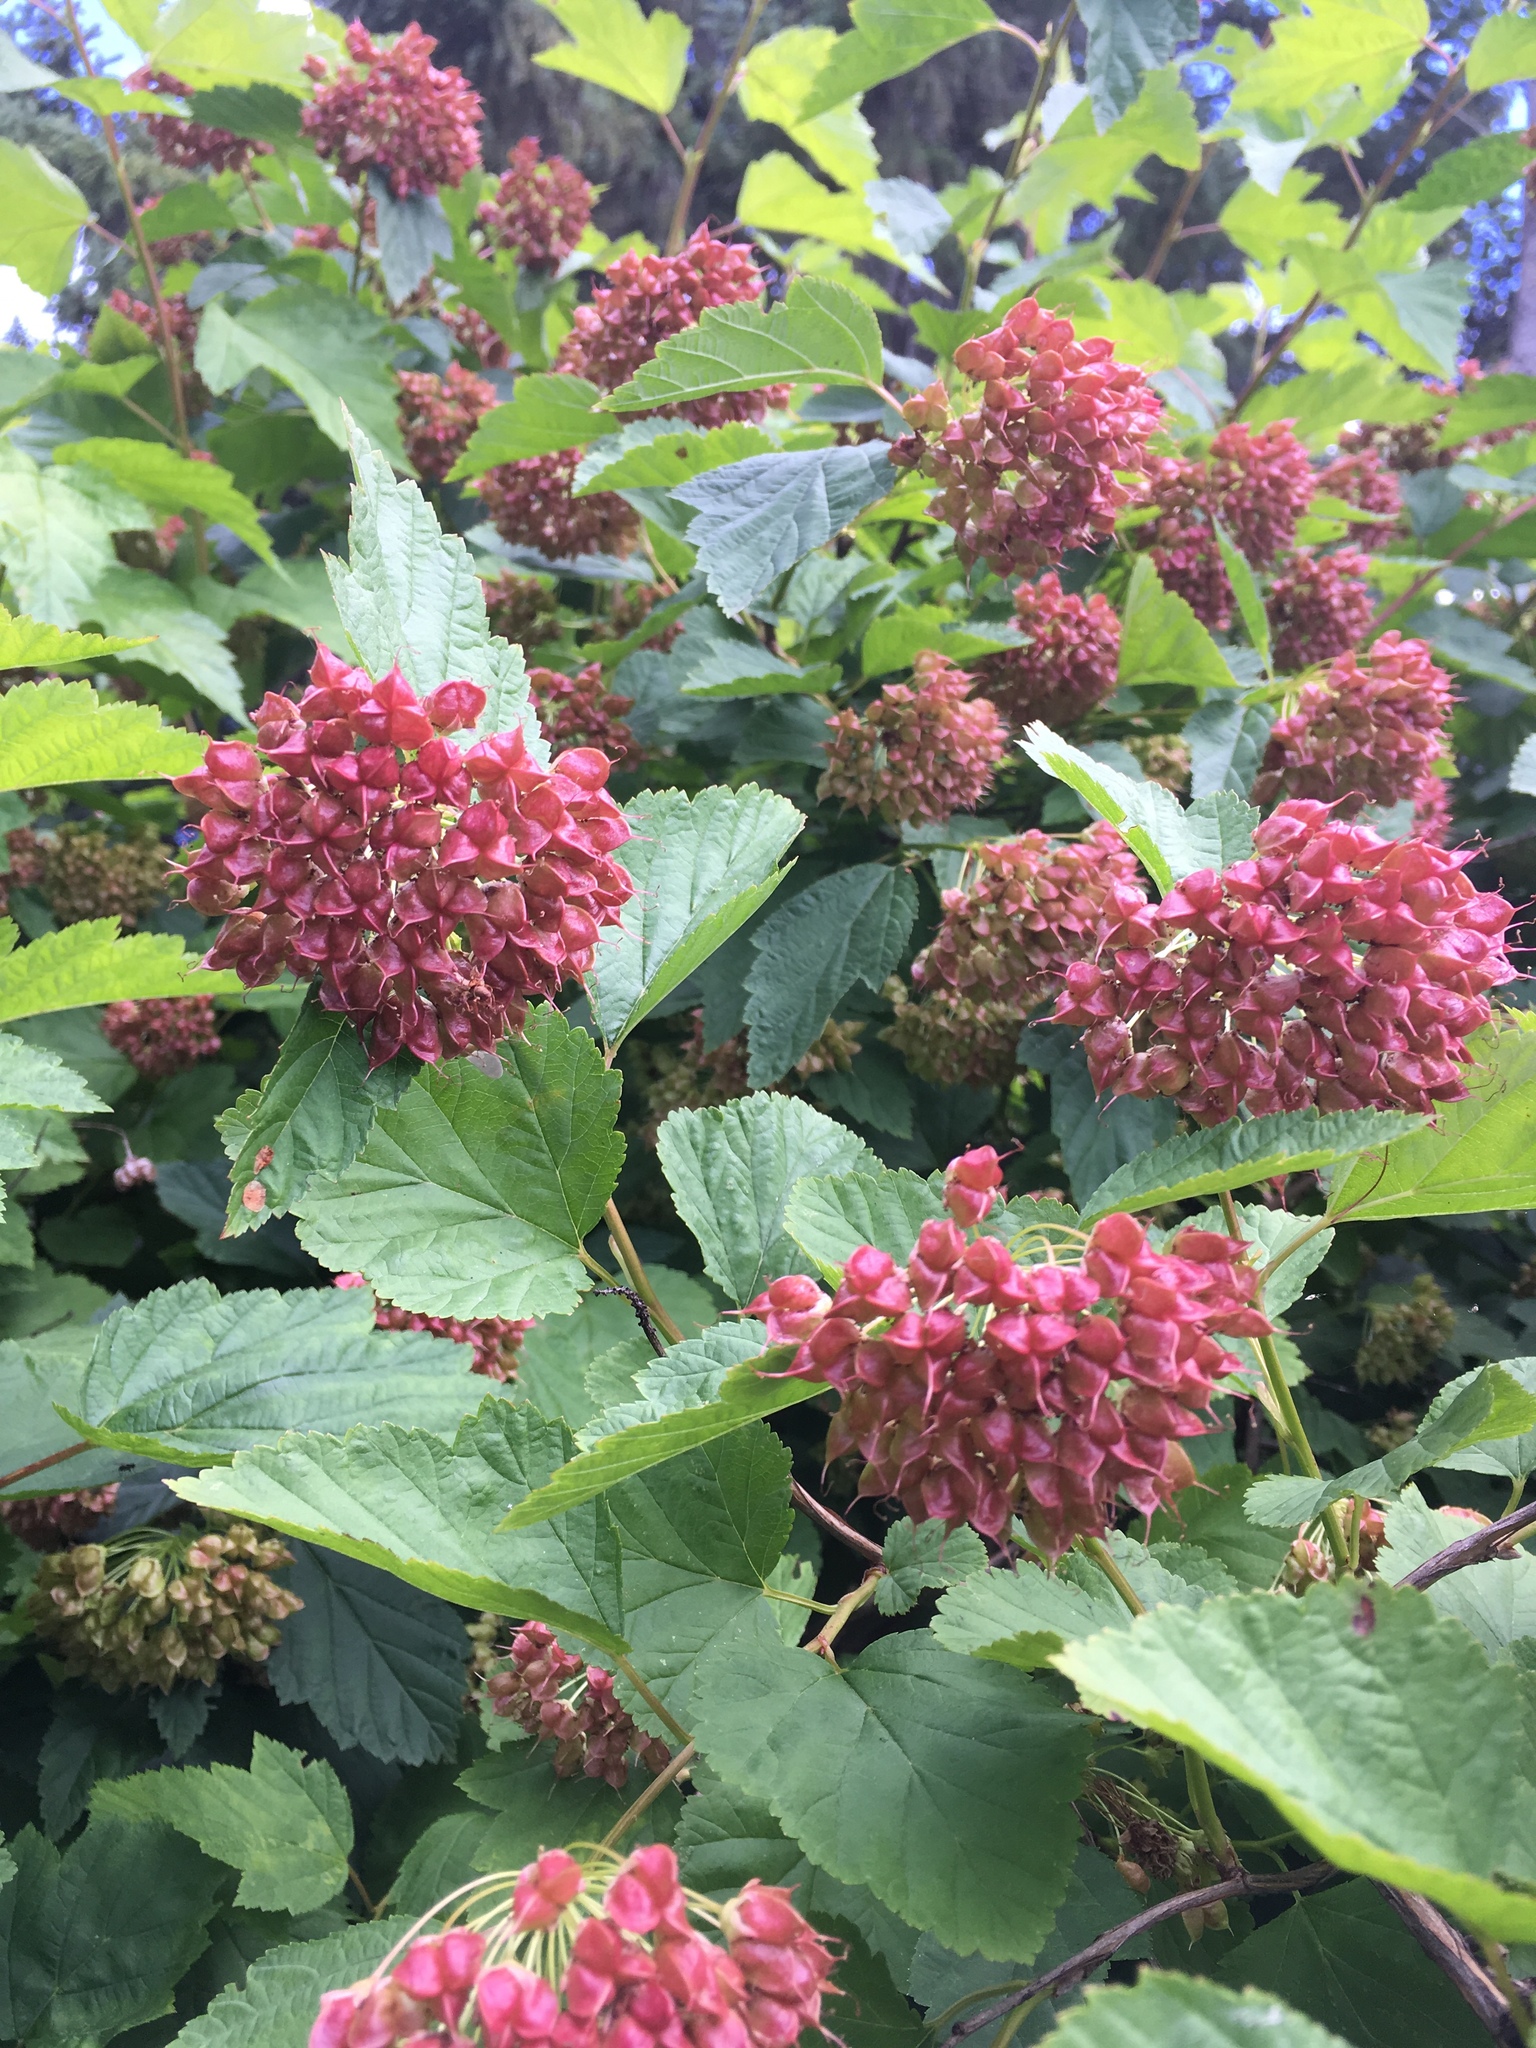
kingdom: Plantae
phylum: Tracheophyta
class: Magnoliopsida
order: Rosales
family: Rosaceae
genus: Physocarpus
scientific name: Physocarpus opulifolius
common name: Ninebark
